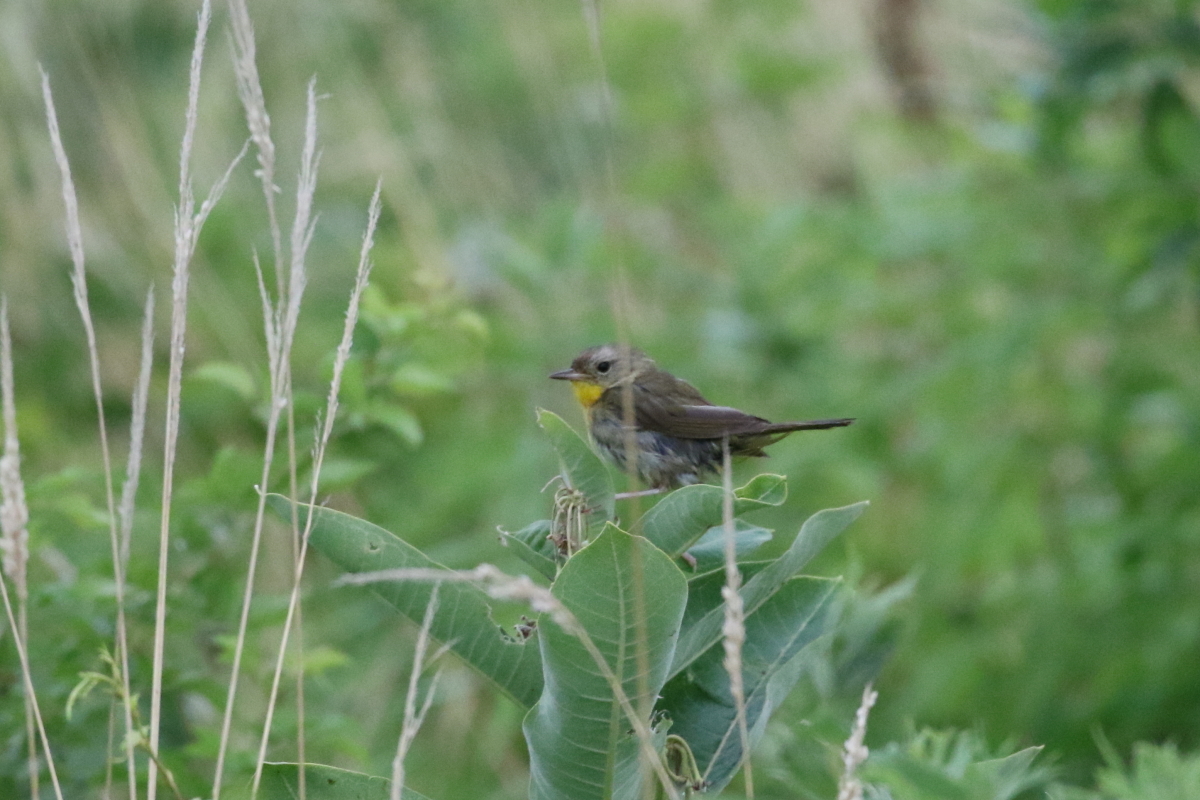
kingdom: Animalia
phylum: Chordata
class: Aves
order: Passeriformes
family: Parulidae
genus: Geothlypis
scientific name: Geothlypis trichas
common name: Common yellowthroat
